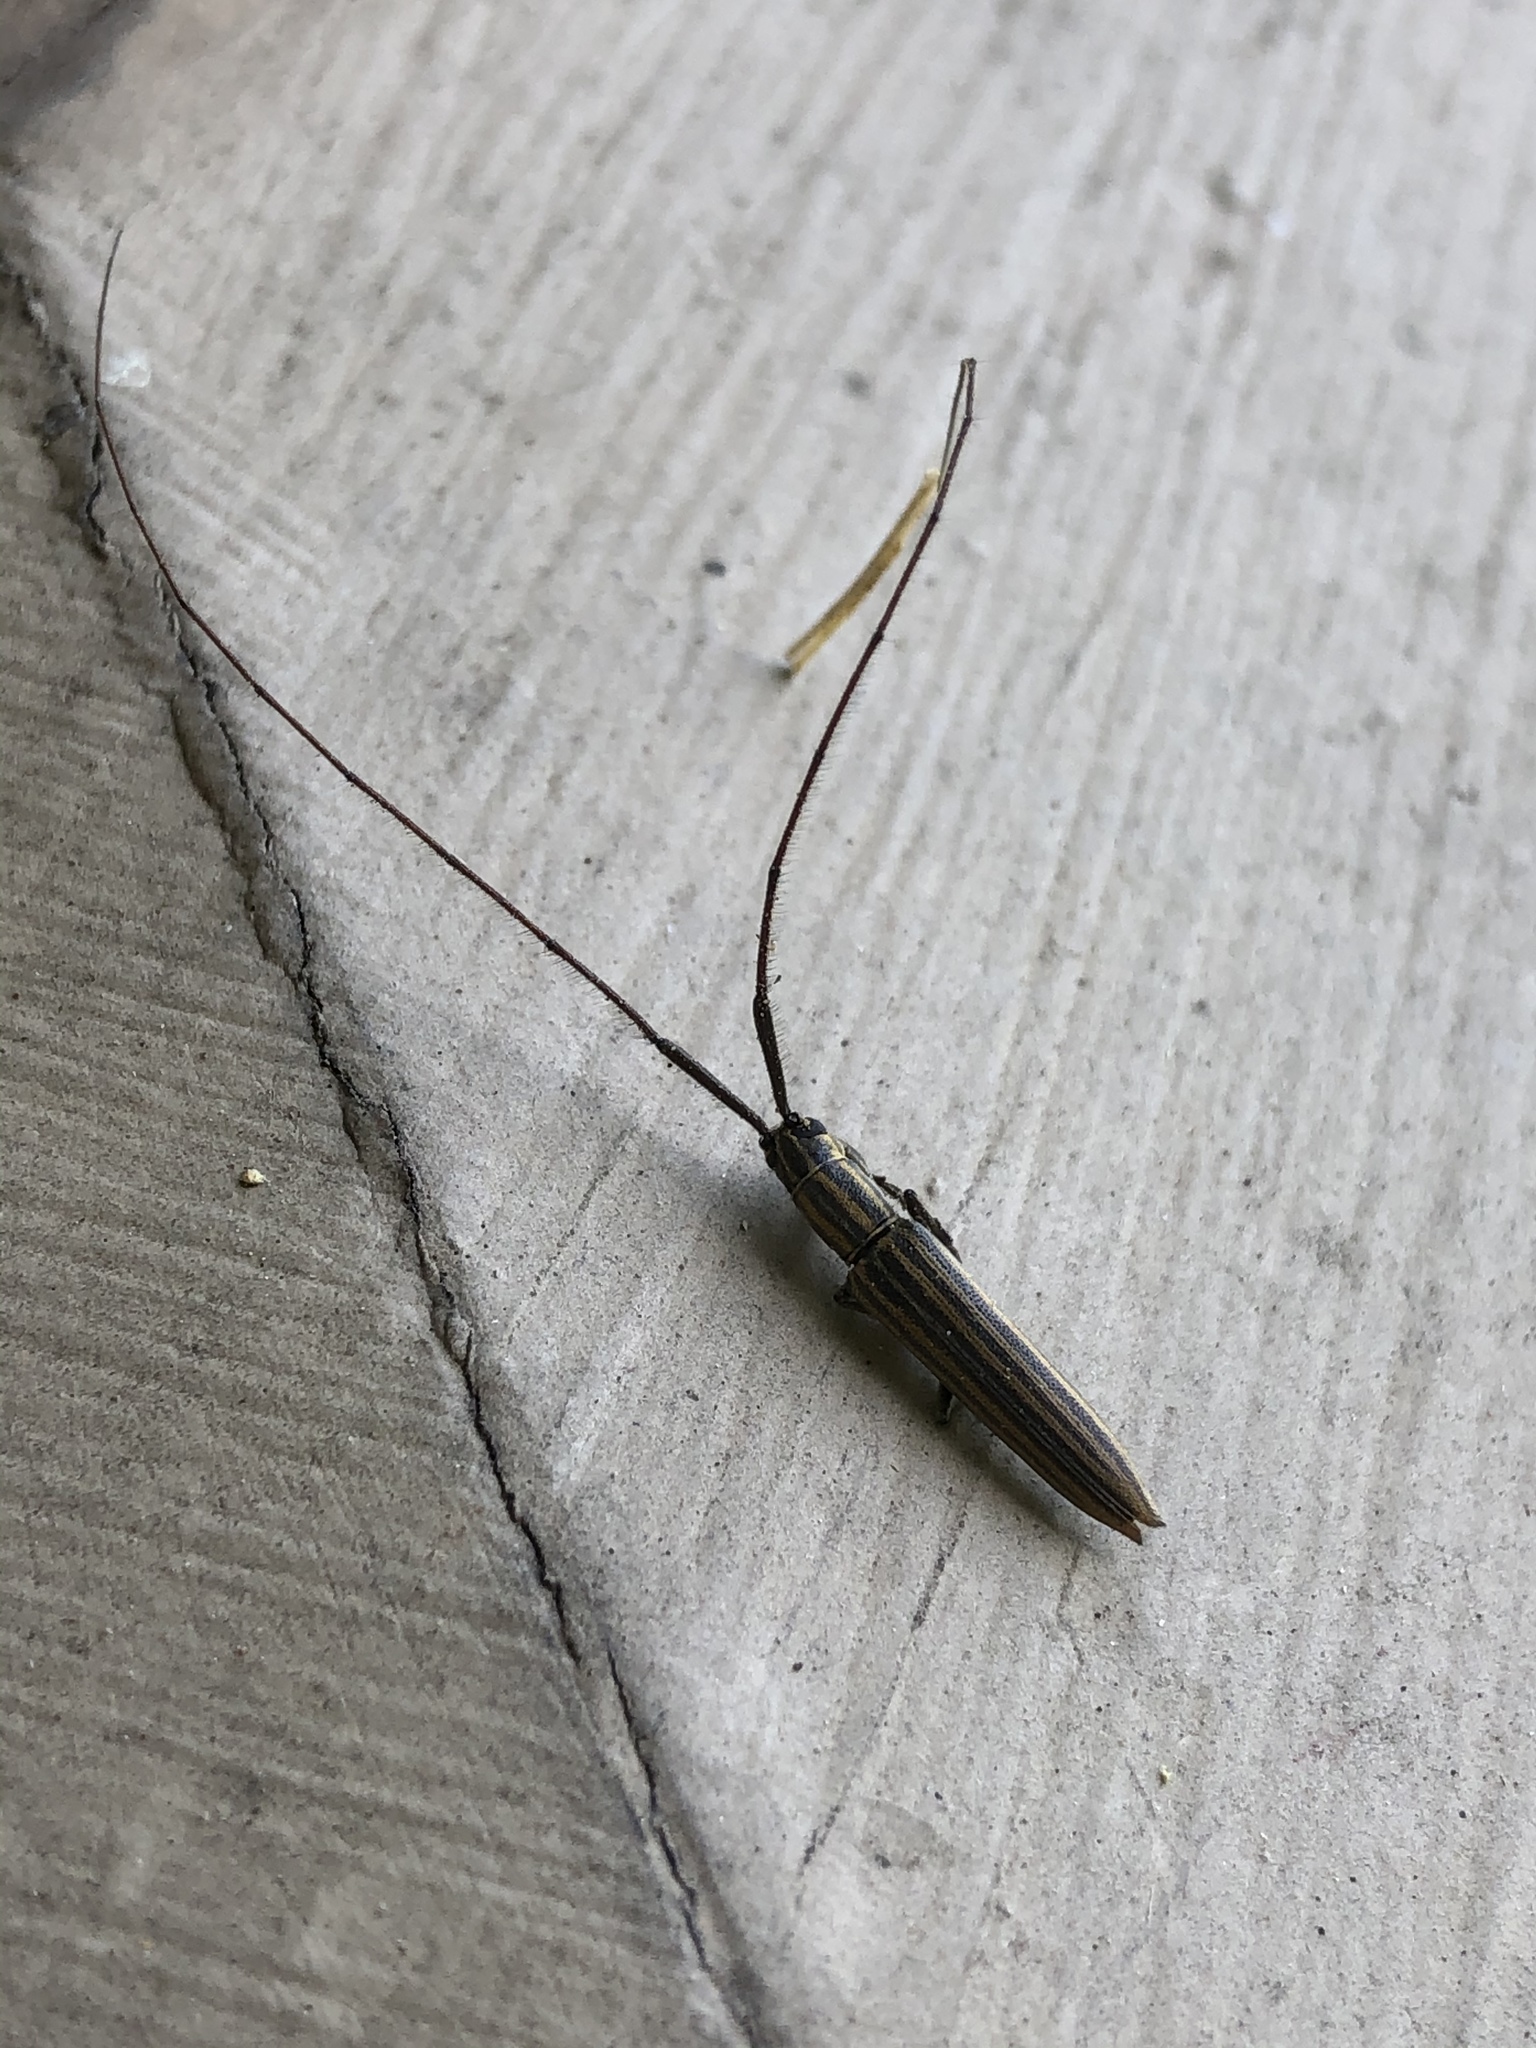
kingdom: Animalia
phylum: Arthropoda
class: Insecta
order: Coleoptera
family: Cerambycidae
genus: Hippopsis
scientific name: Hippopsis
